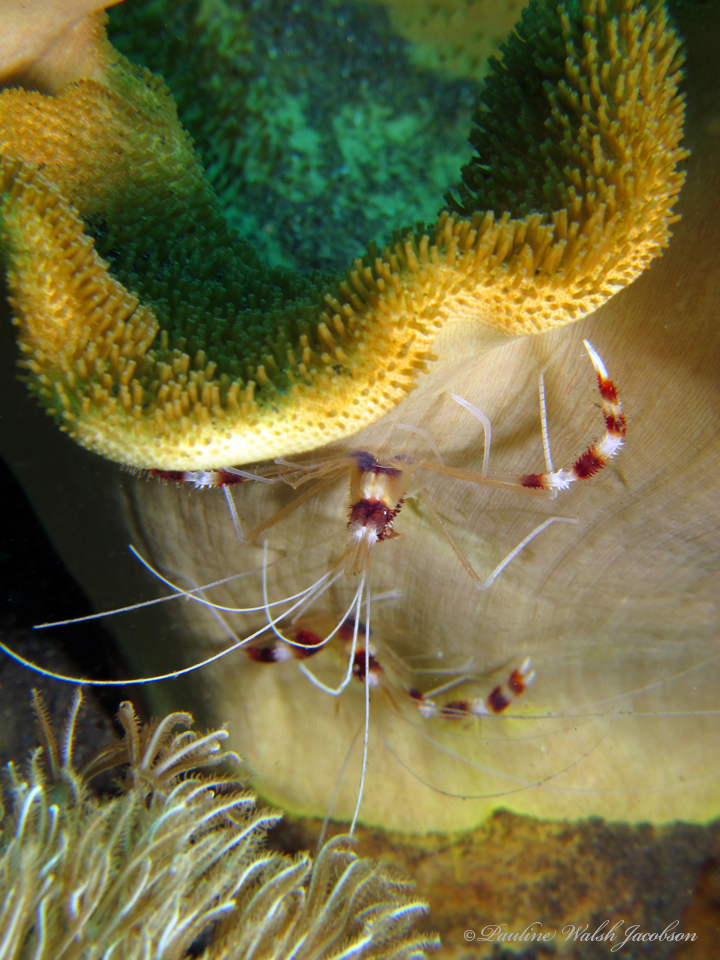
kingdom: Animalia
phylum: Arthropoda
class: Malacostraca
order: Decapoda
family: Stenopodidae
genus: Stenopus
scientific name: Stenopus hispidus
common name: Banded coral shrimp
